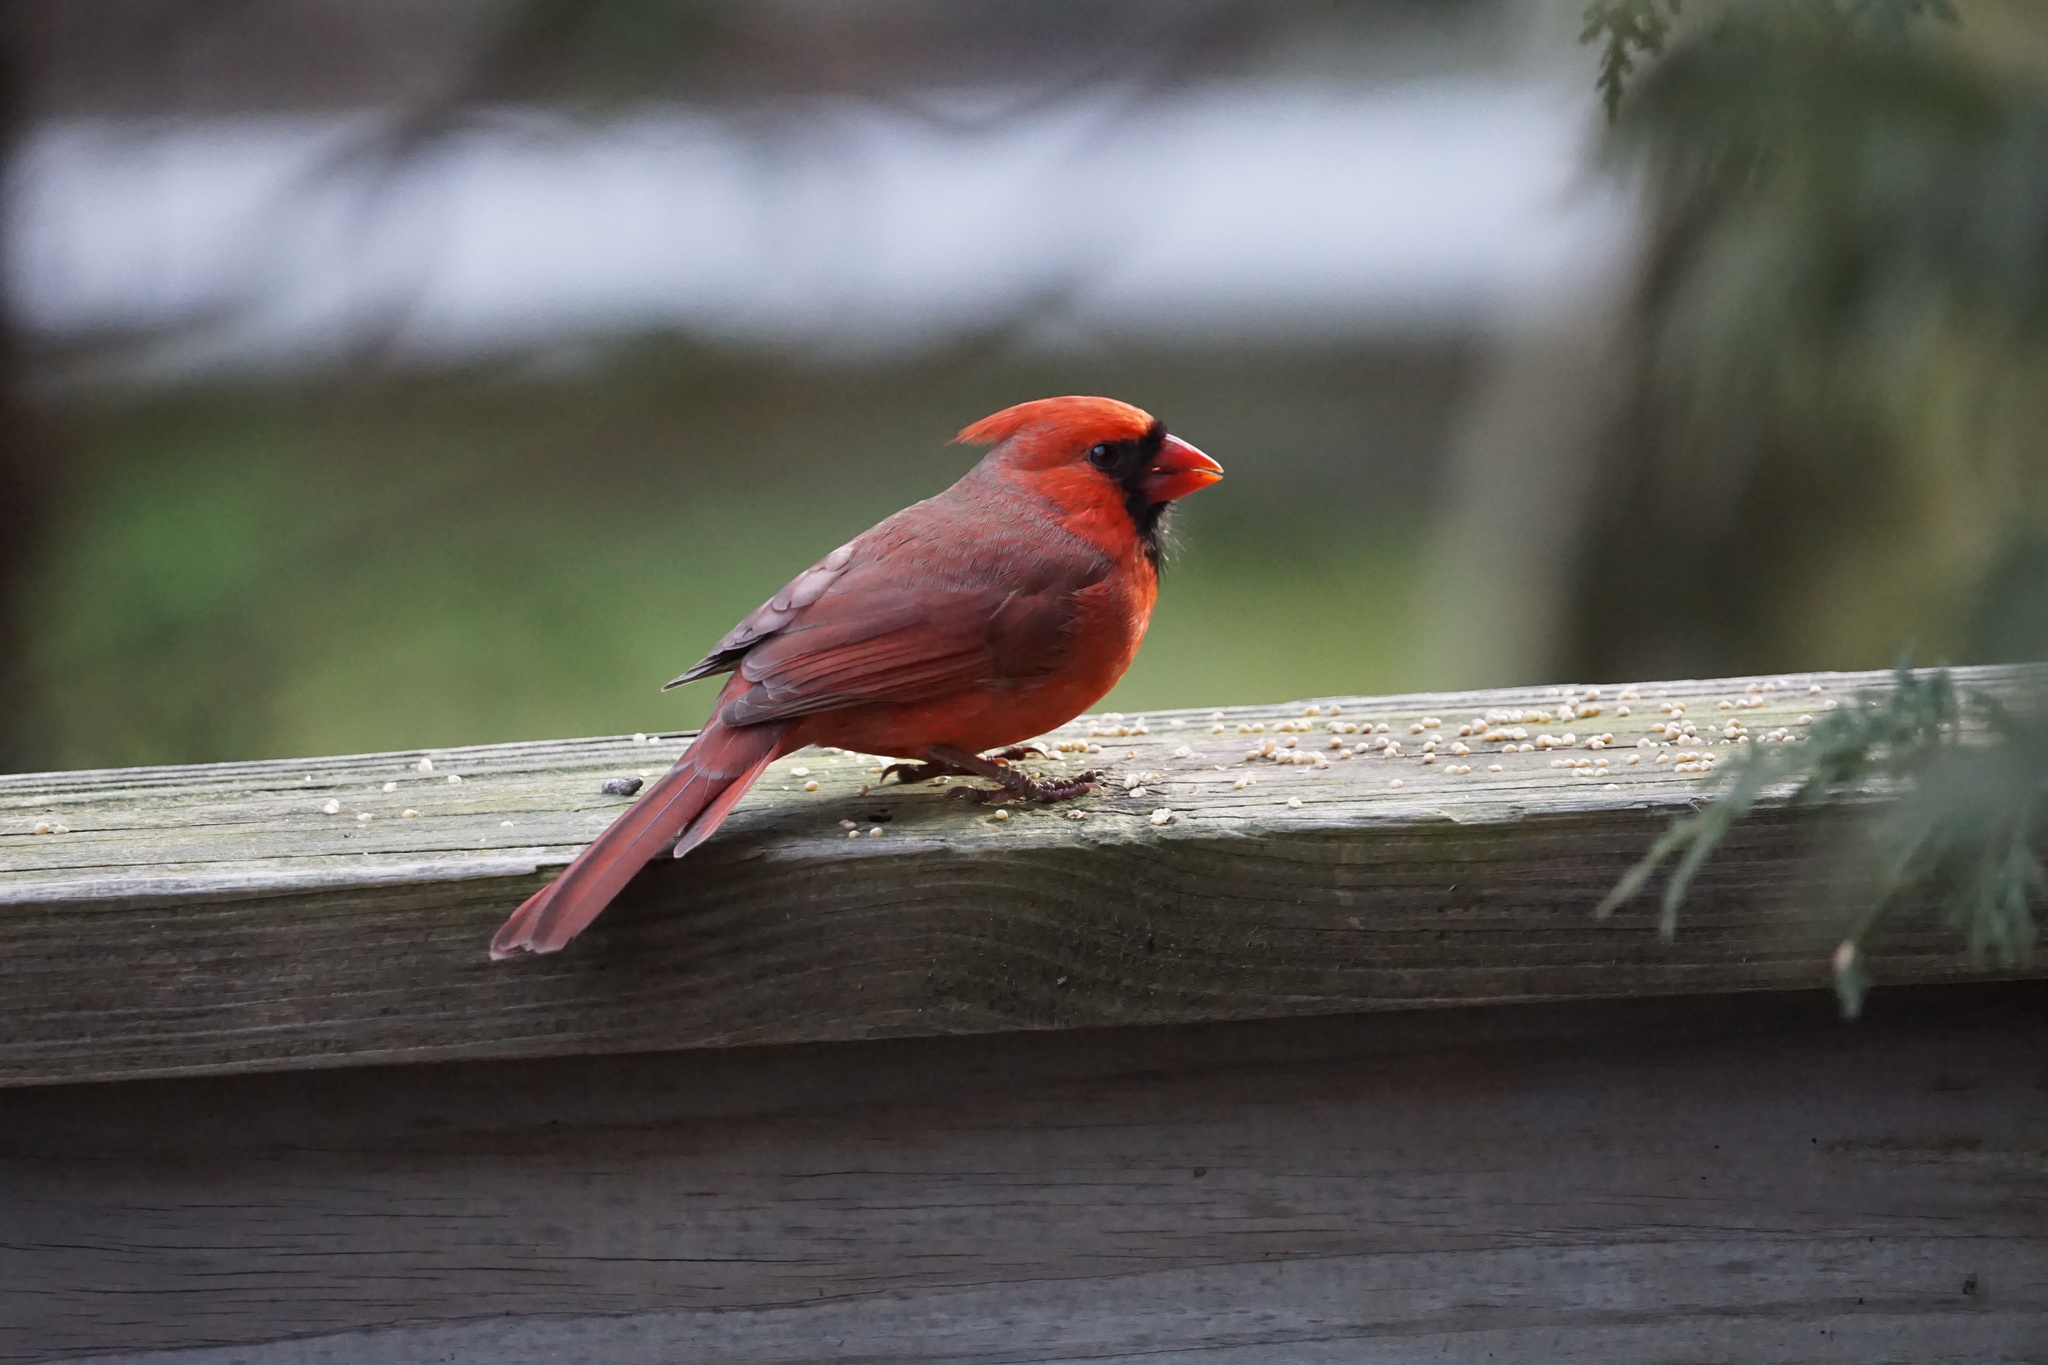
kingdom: Animalia
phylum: Chordata
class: Aves
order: Passeriformes
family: Cardinalidae
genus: Cardinalis
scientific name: Cardinalis cardinalis
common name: Northern cardinal
